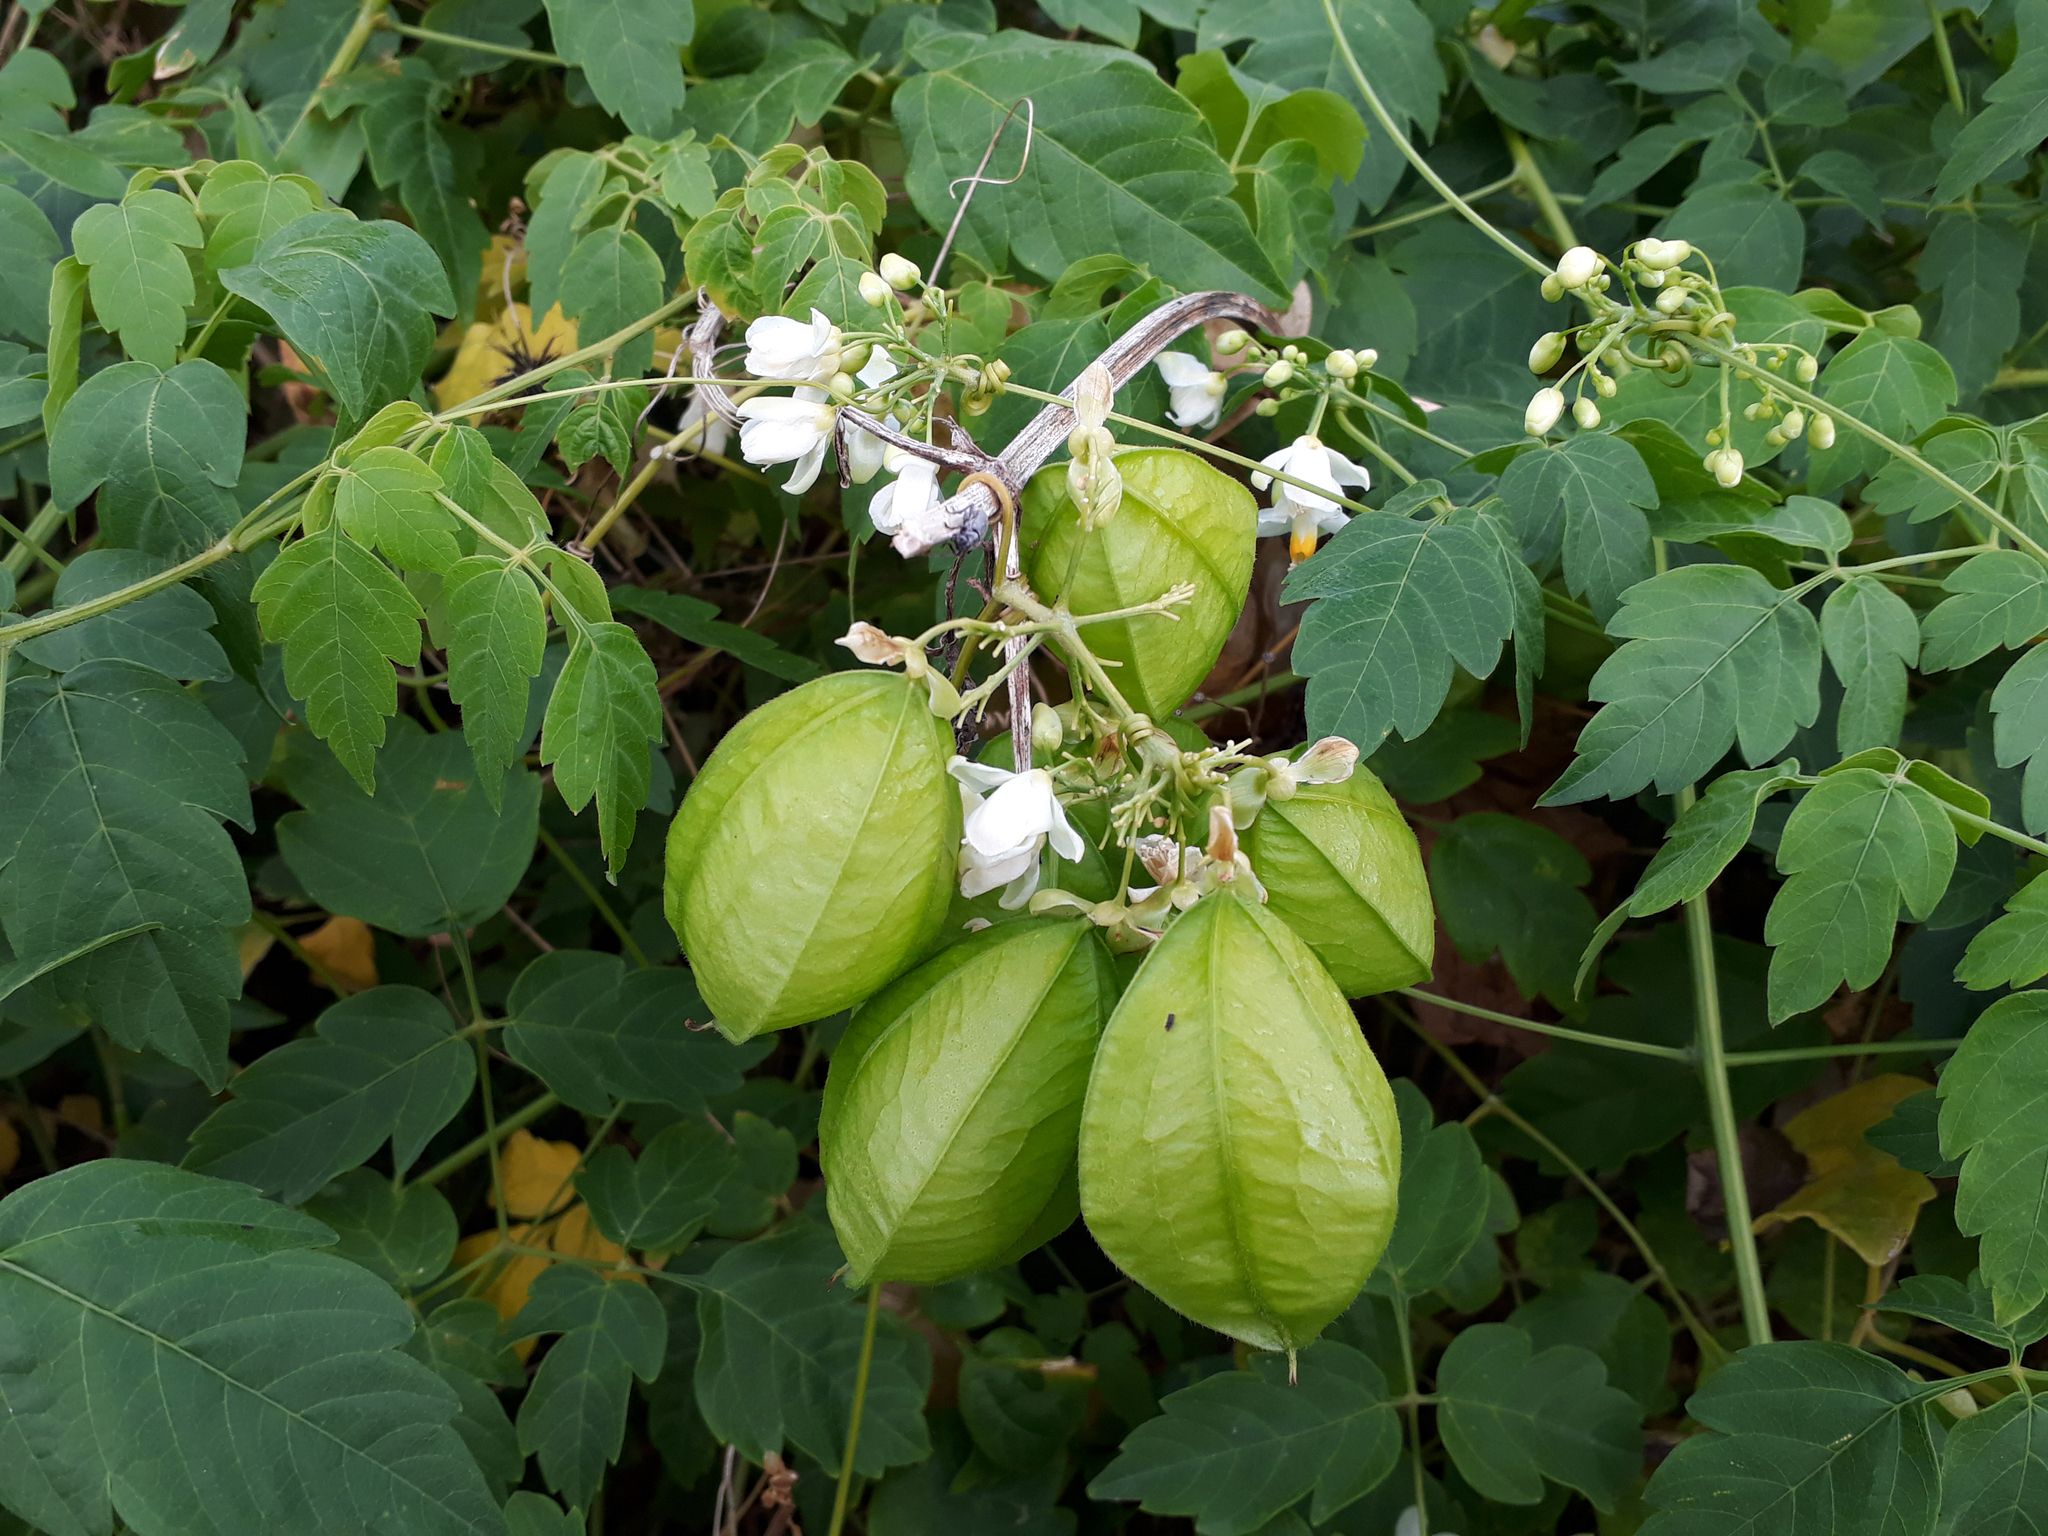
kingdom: Plantae
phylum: Tracheophyta
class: Magnoliopsida
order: Sapindales
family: Sapindaceae
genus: Cardiospermum
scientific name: Cardiospermum grandiflorum
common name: Balloon vine
